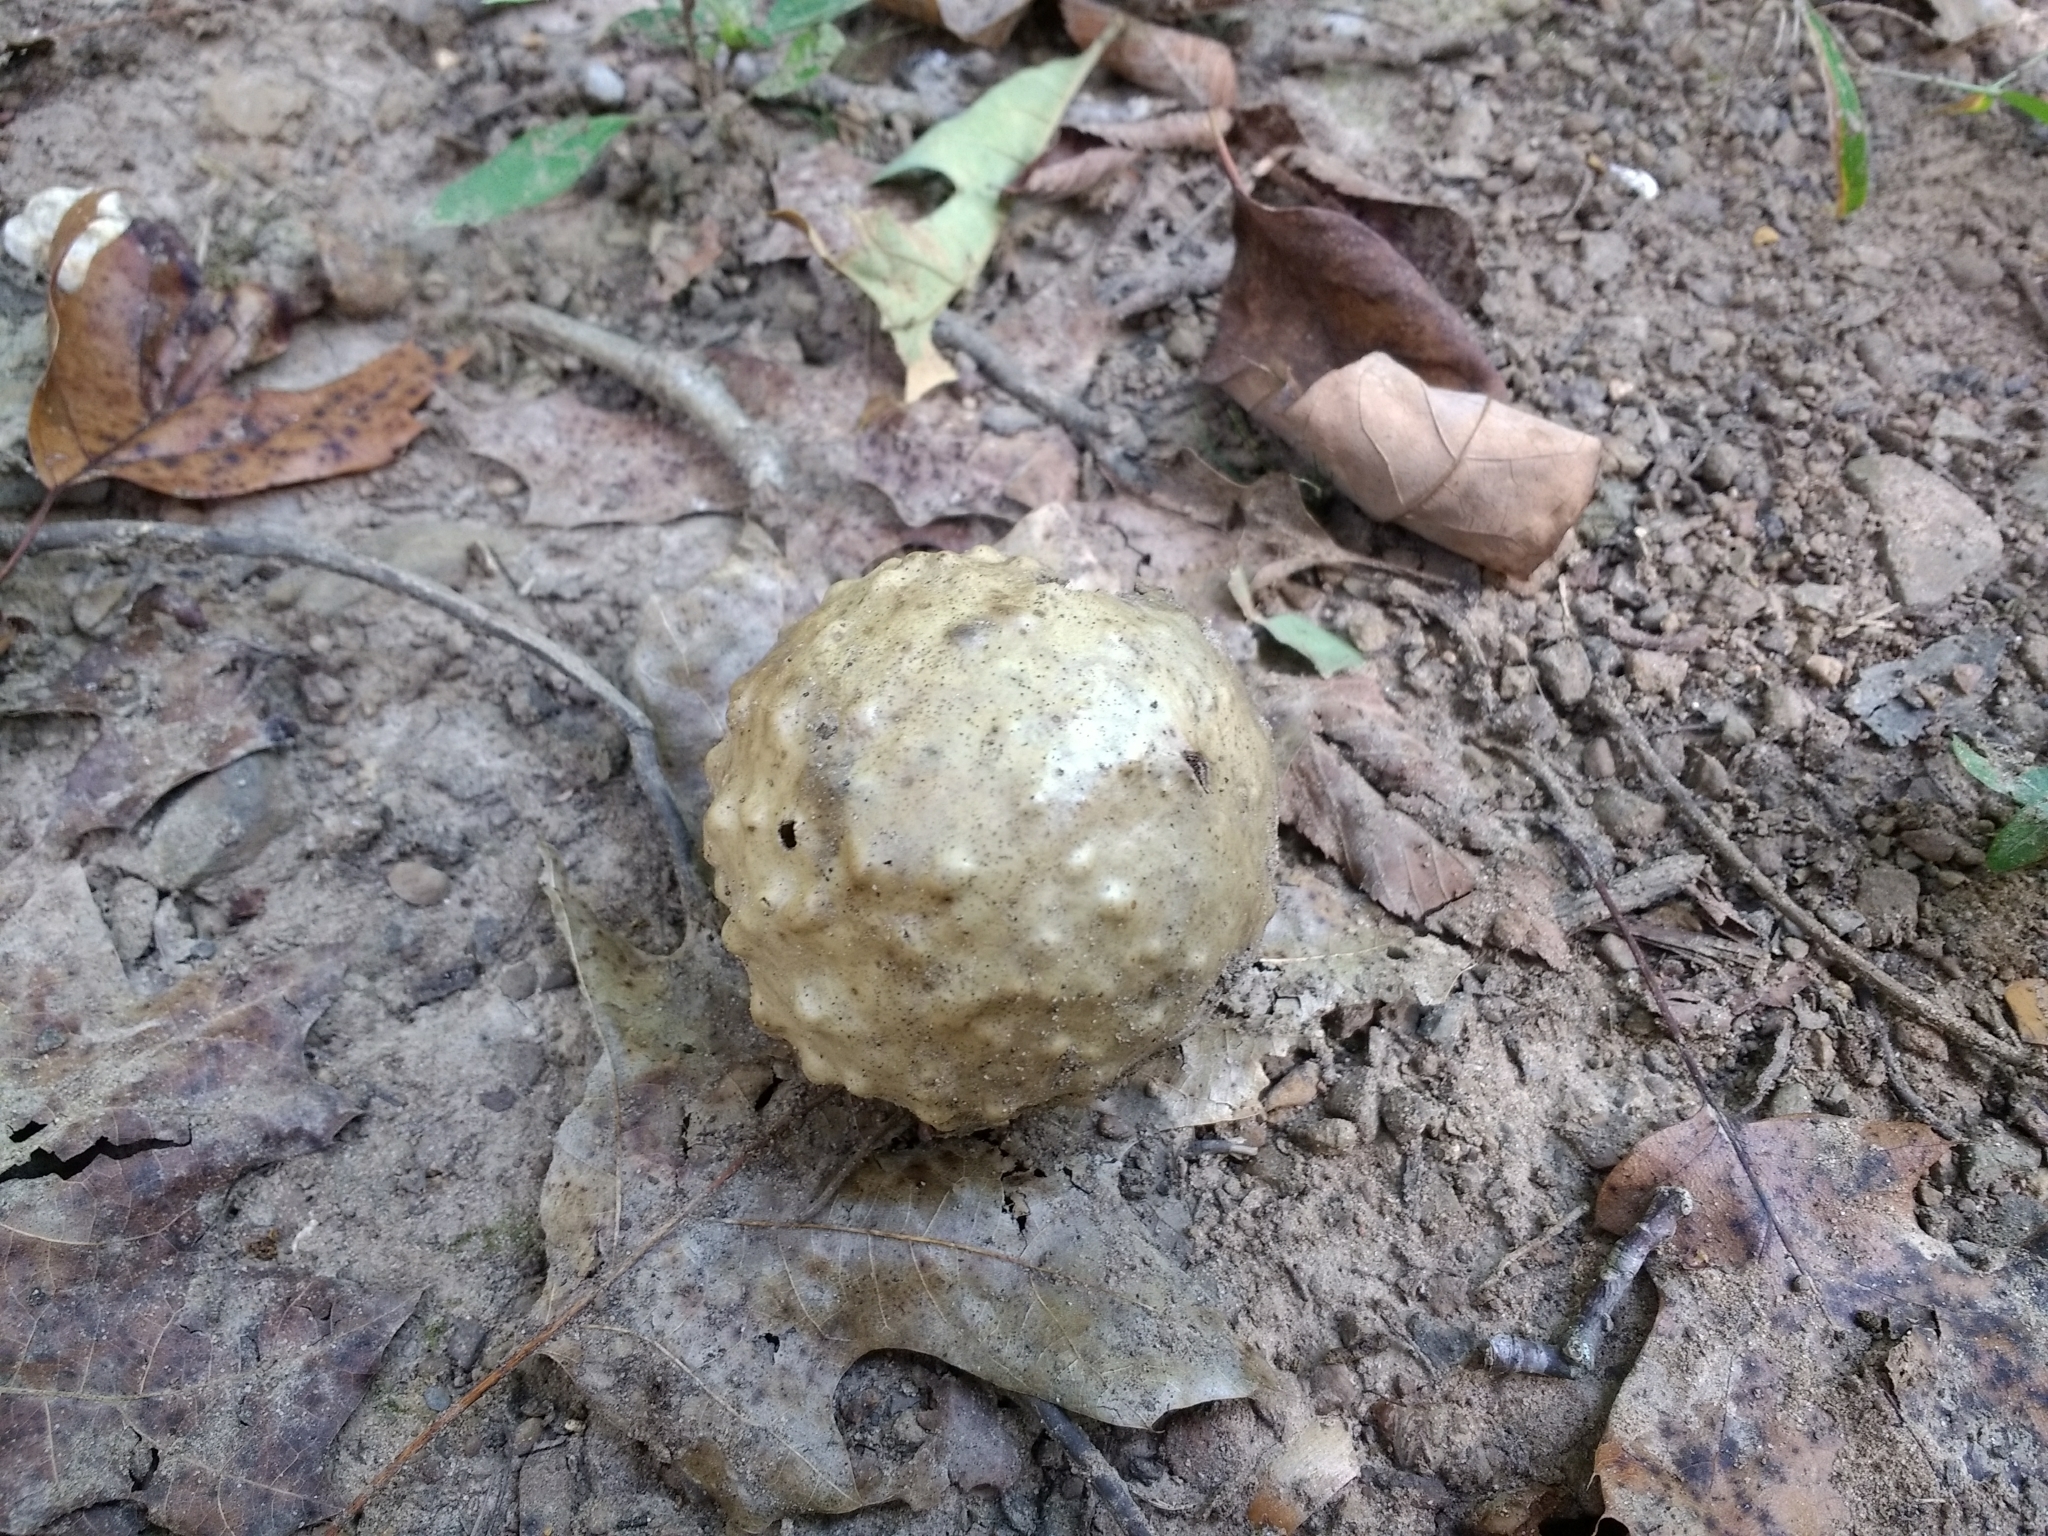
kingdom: Animalia
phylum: Arthropoda
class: Insecta
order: Hymenoptera
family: Cynipidae
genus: Amphibolips
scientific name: Amphibolips
